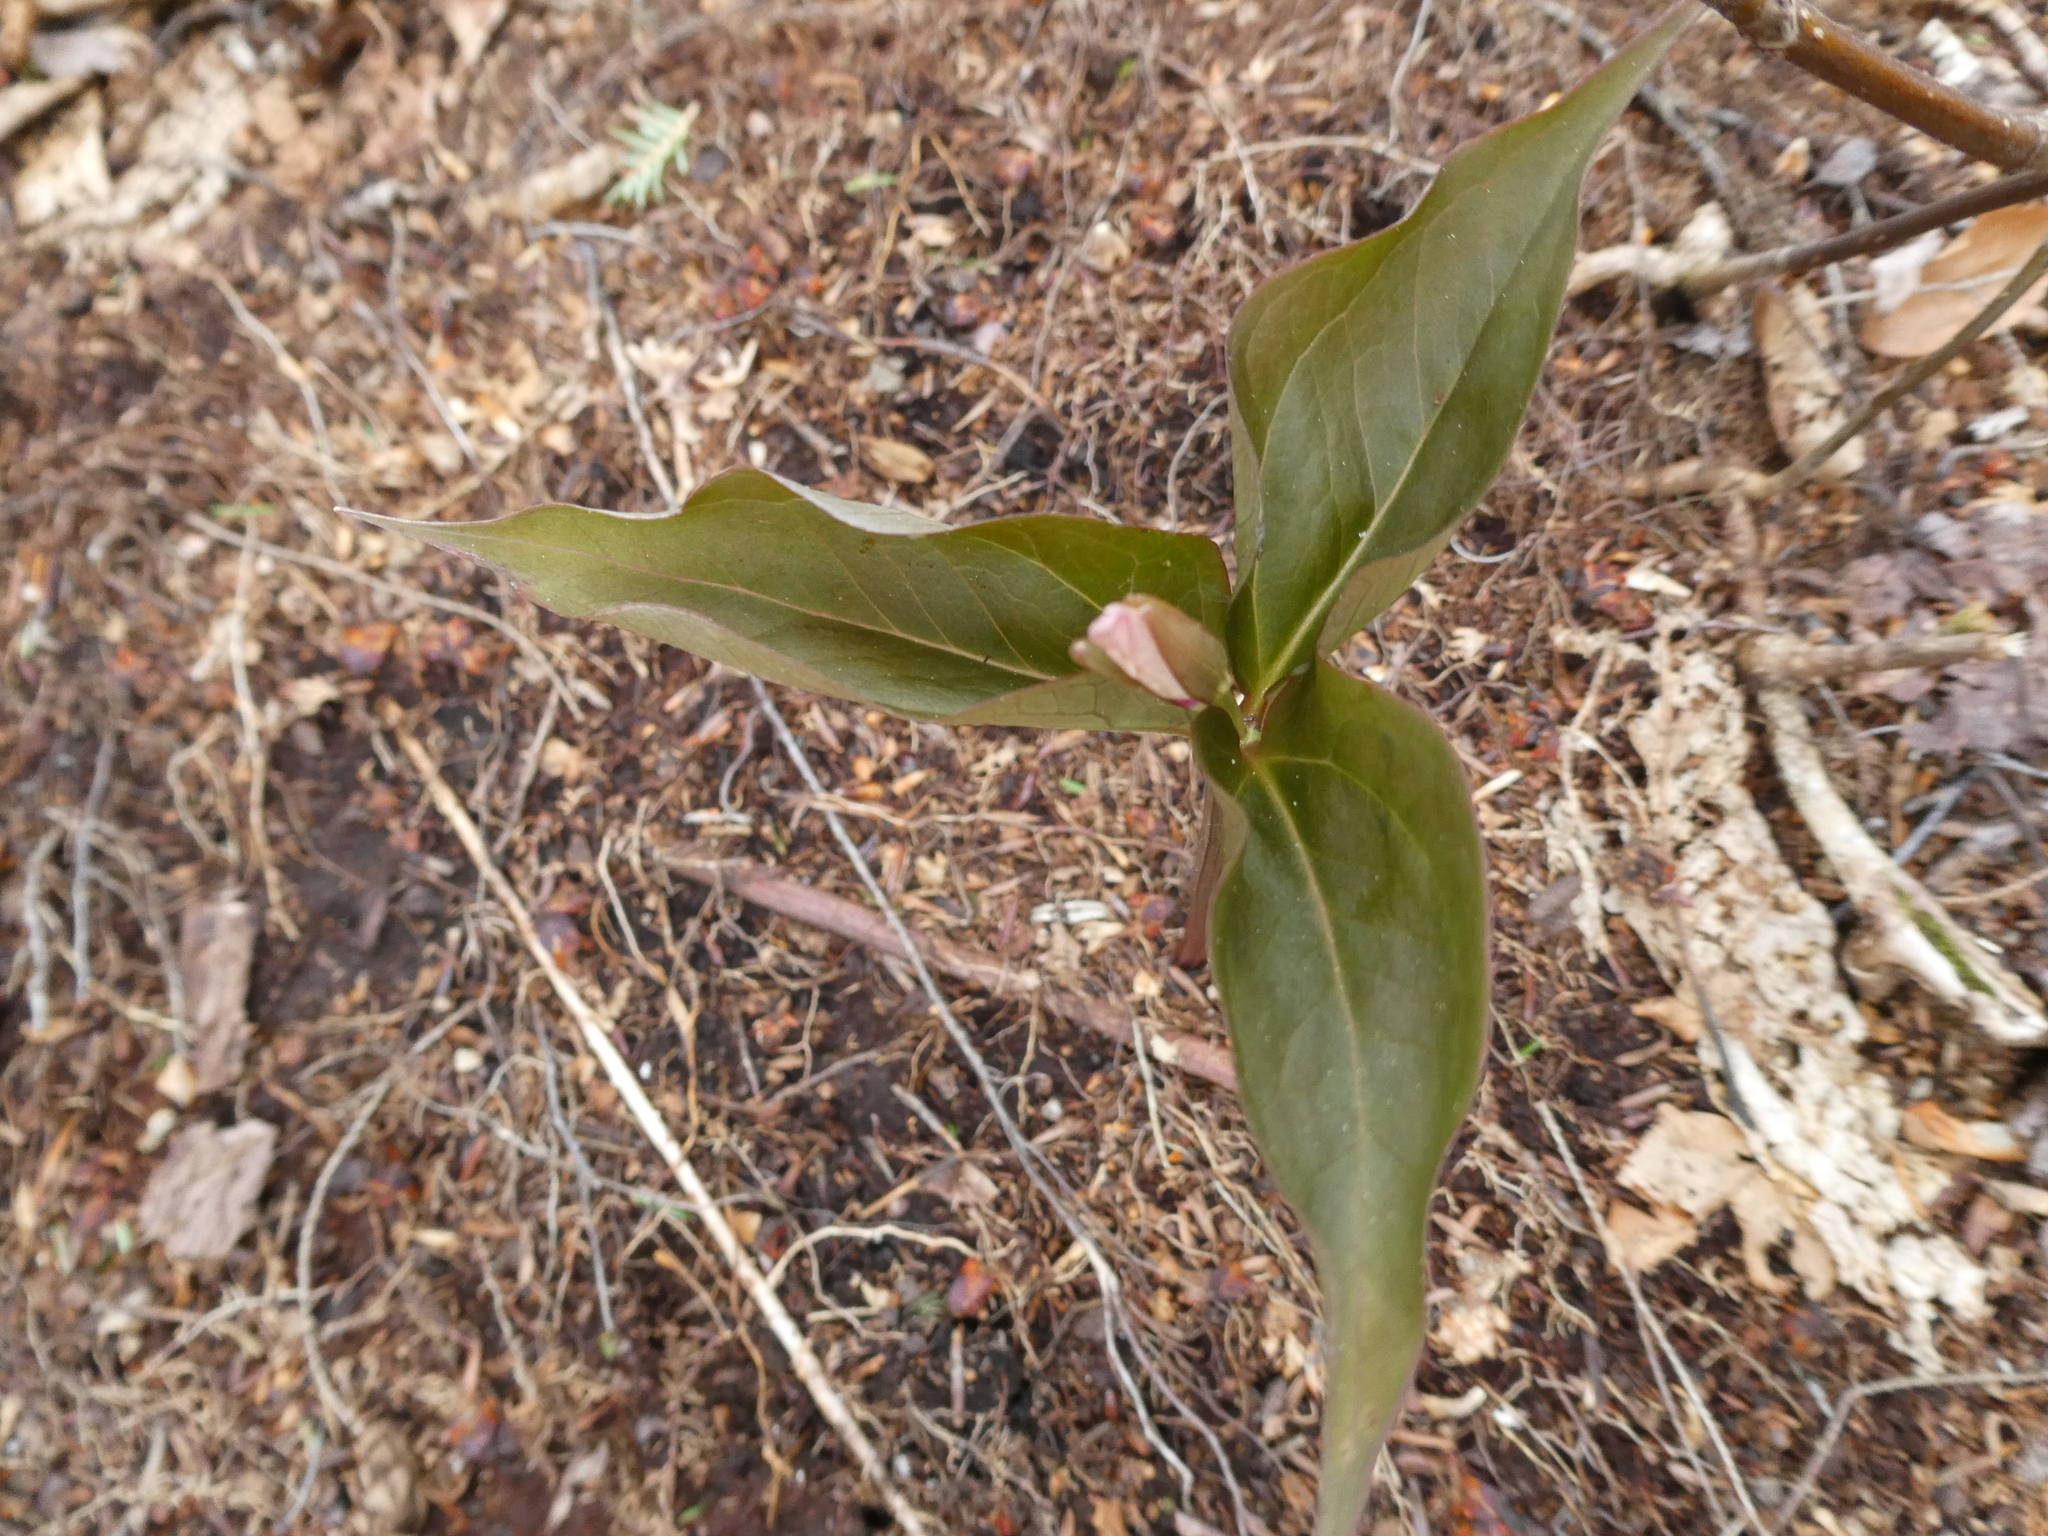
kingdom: Plantae
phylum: Tracheophyta
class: Liliopsida
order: Liliales
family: Melanthiaceae
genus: Trillium
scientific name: Trillium undulatum
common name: Paint trillium
